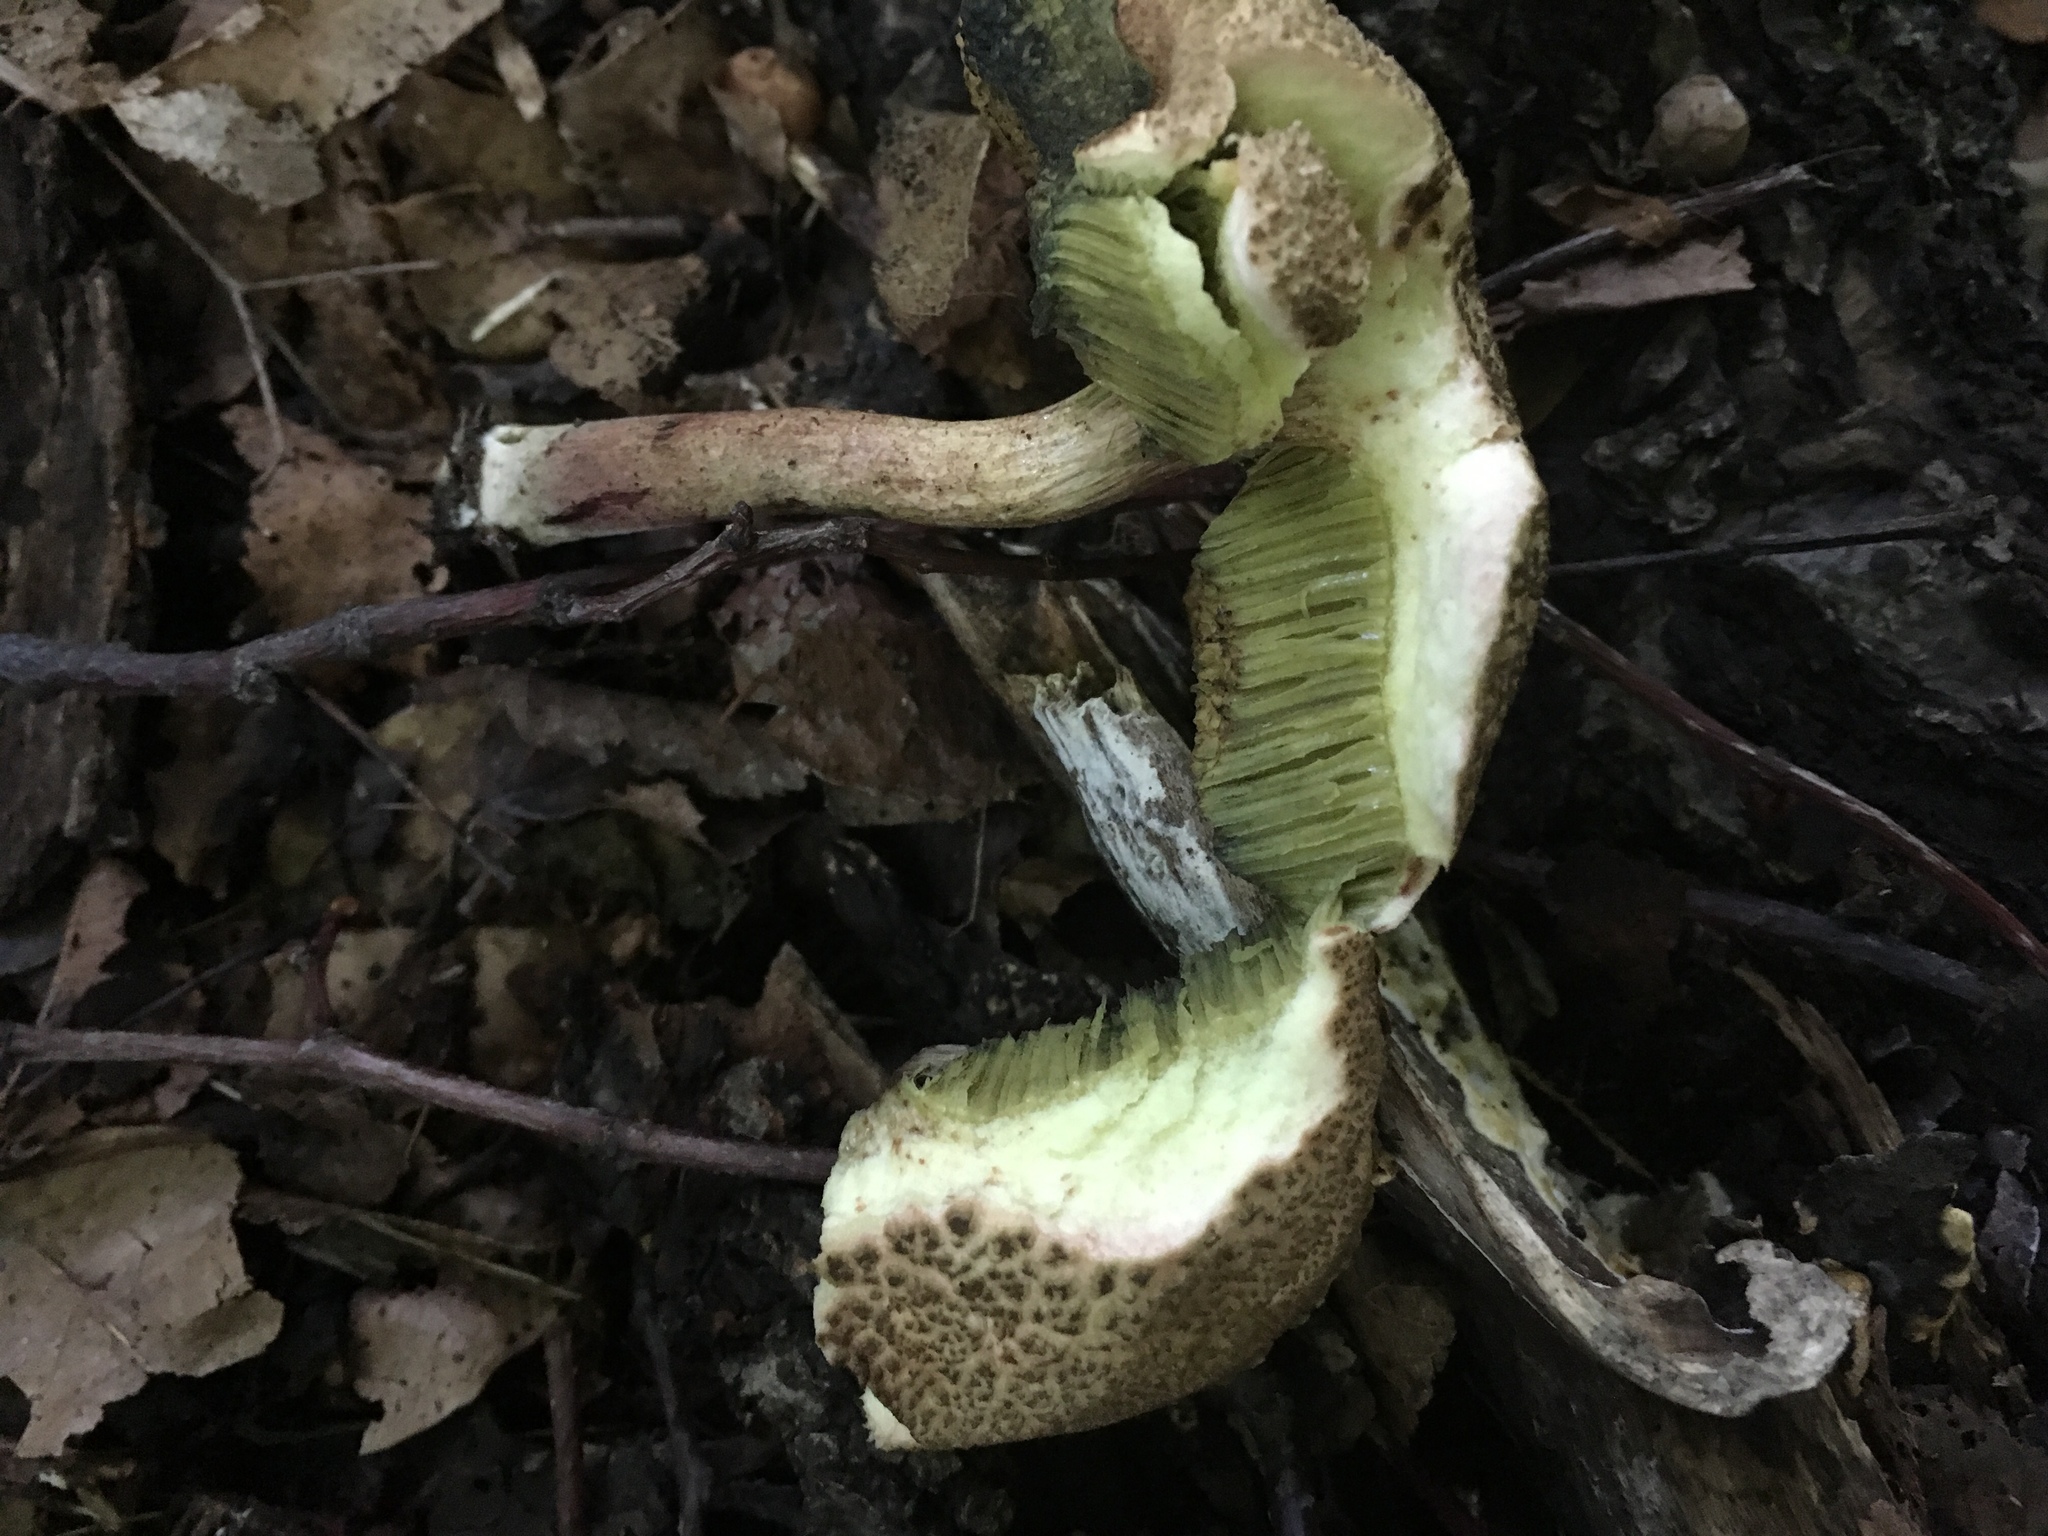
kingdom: Fungi
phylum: Basidiomycota
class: Agaricomycetes
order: Boletales
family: Boletaceae
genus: Xerocomellus
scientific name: Xerocomellus chrysenteron
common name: Red-cracking bolete
